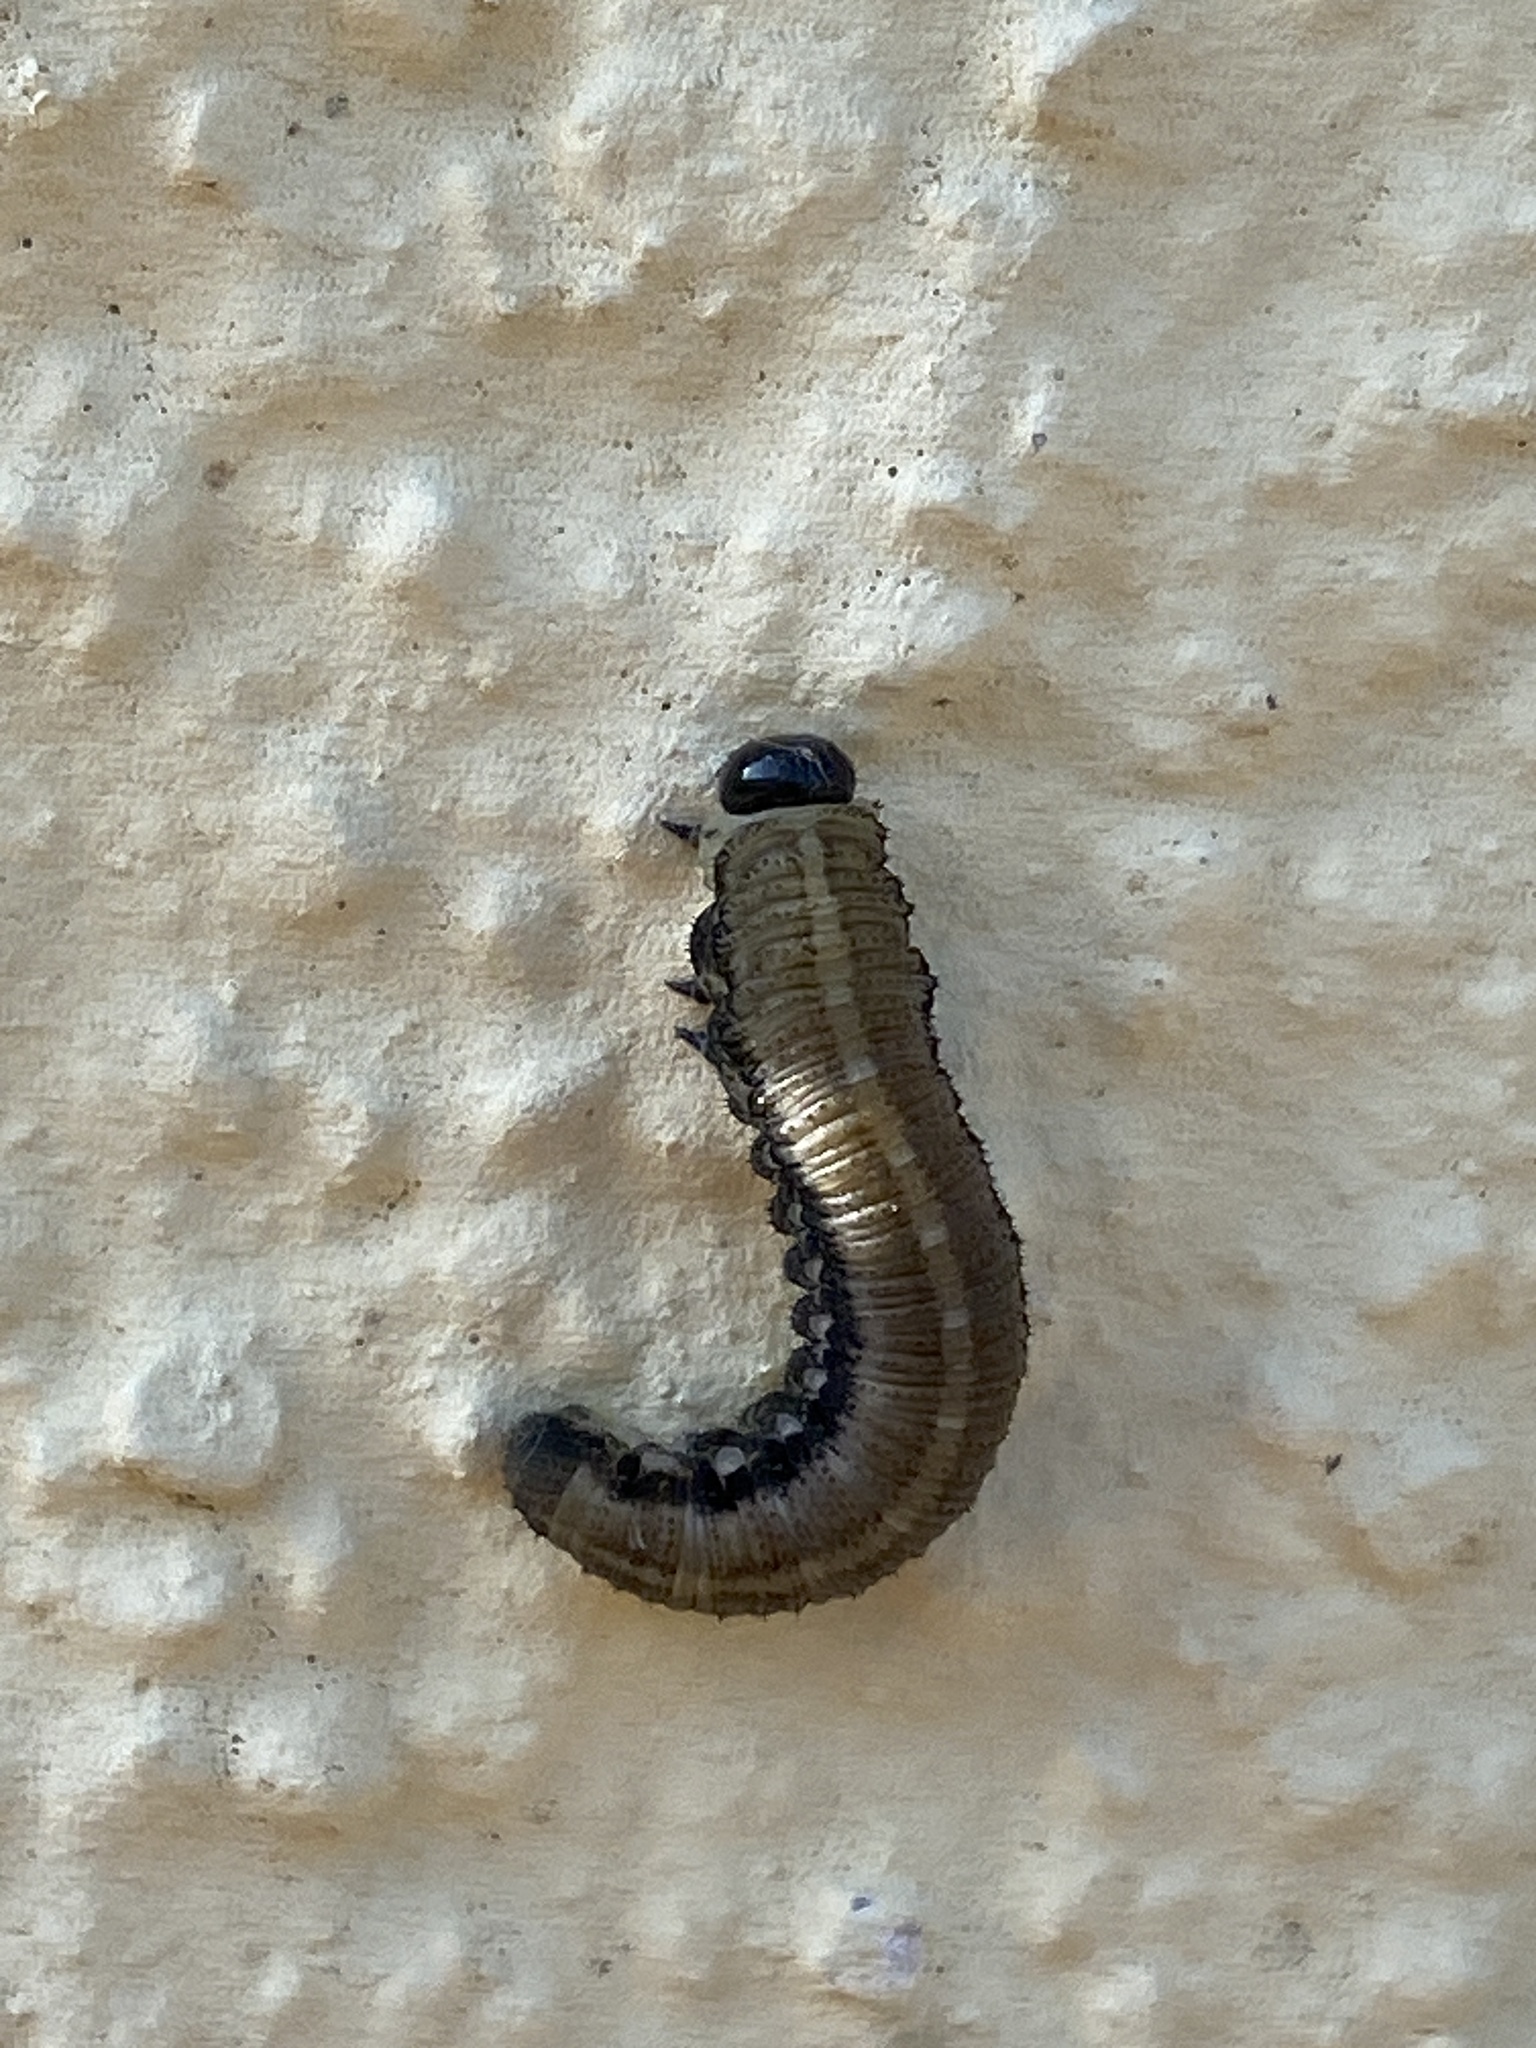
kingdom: Animalia
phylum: Arthropoda
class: Insecta
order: Hymenoptera
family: Diprionidae
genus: Neodiprion
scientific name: Neodiprion sertifer
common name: European pine sawfly
